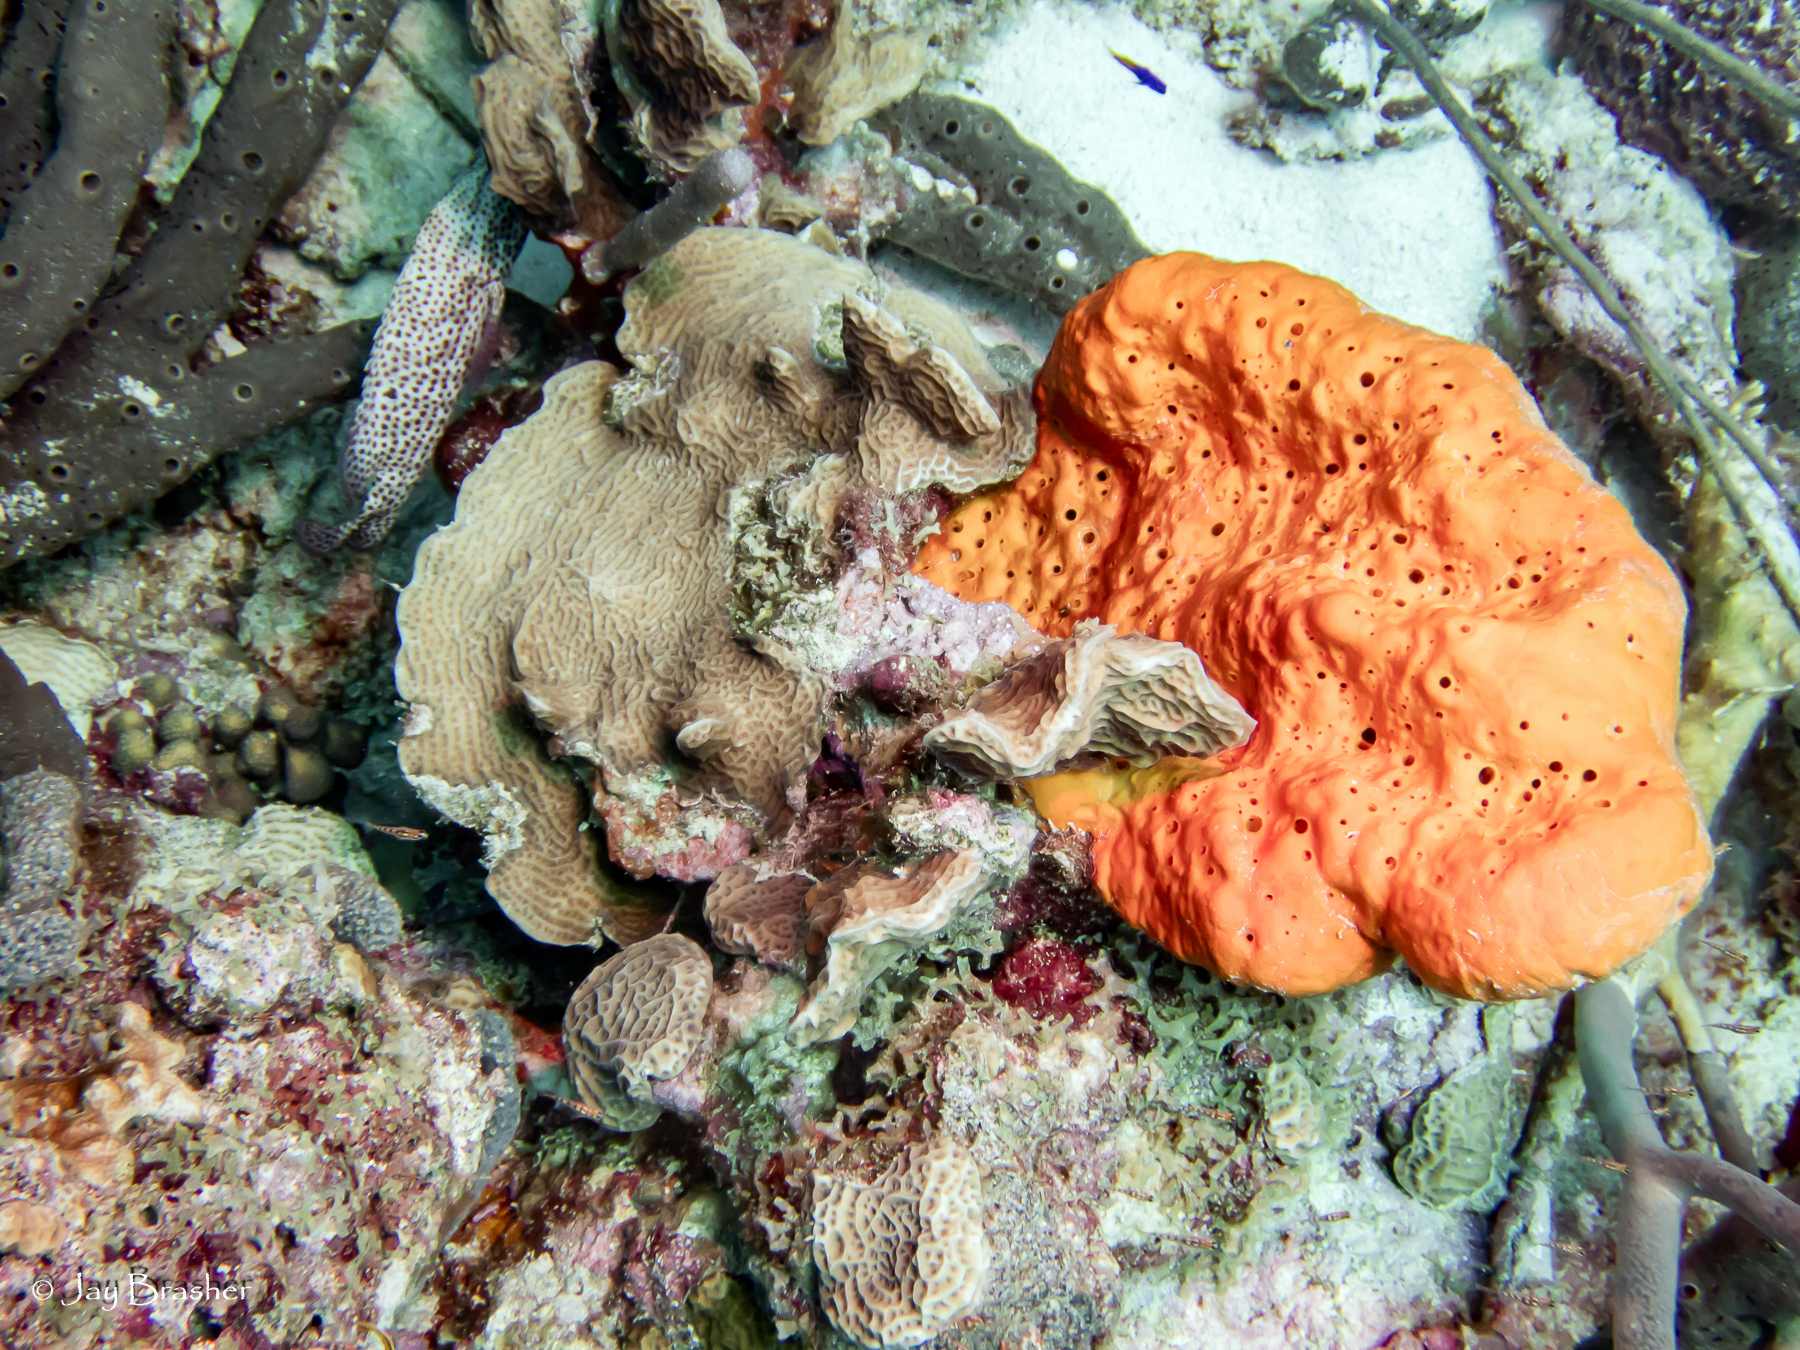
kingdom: Animalia
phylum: Porifera
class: Demospongiae
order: Agelasida
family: Agelasidae
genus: Agelas
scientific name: Agelas clathrodes
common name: Orange elephant ear sponge
